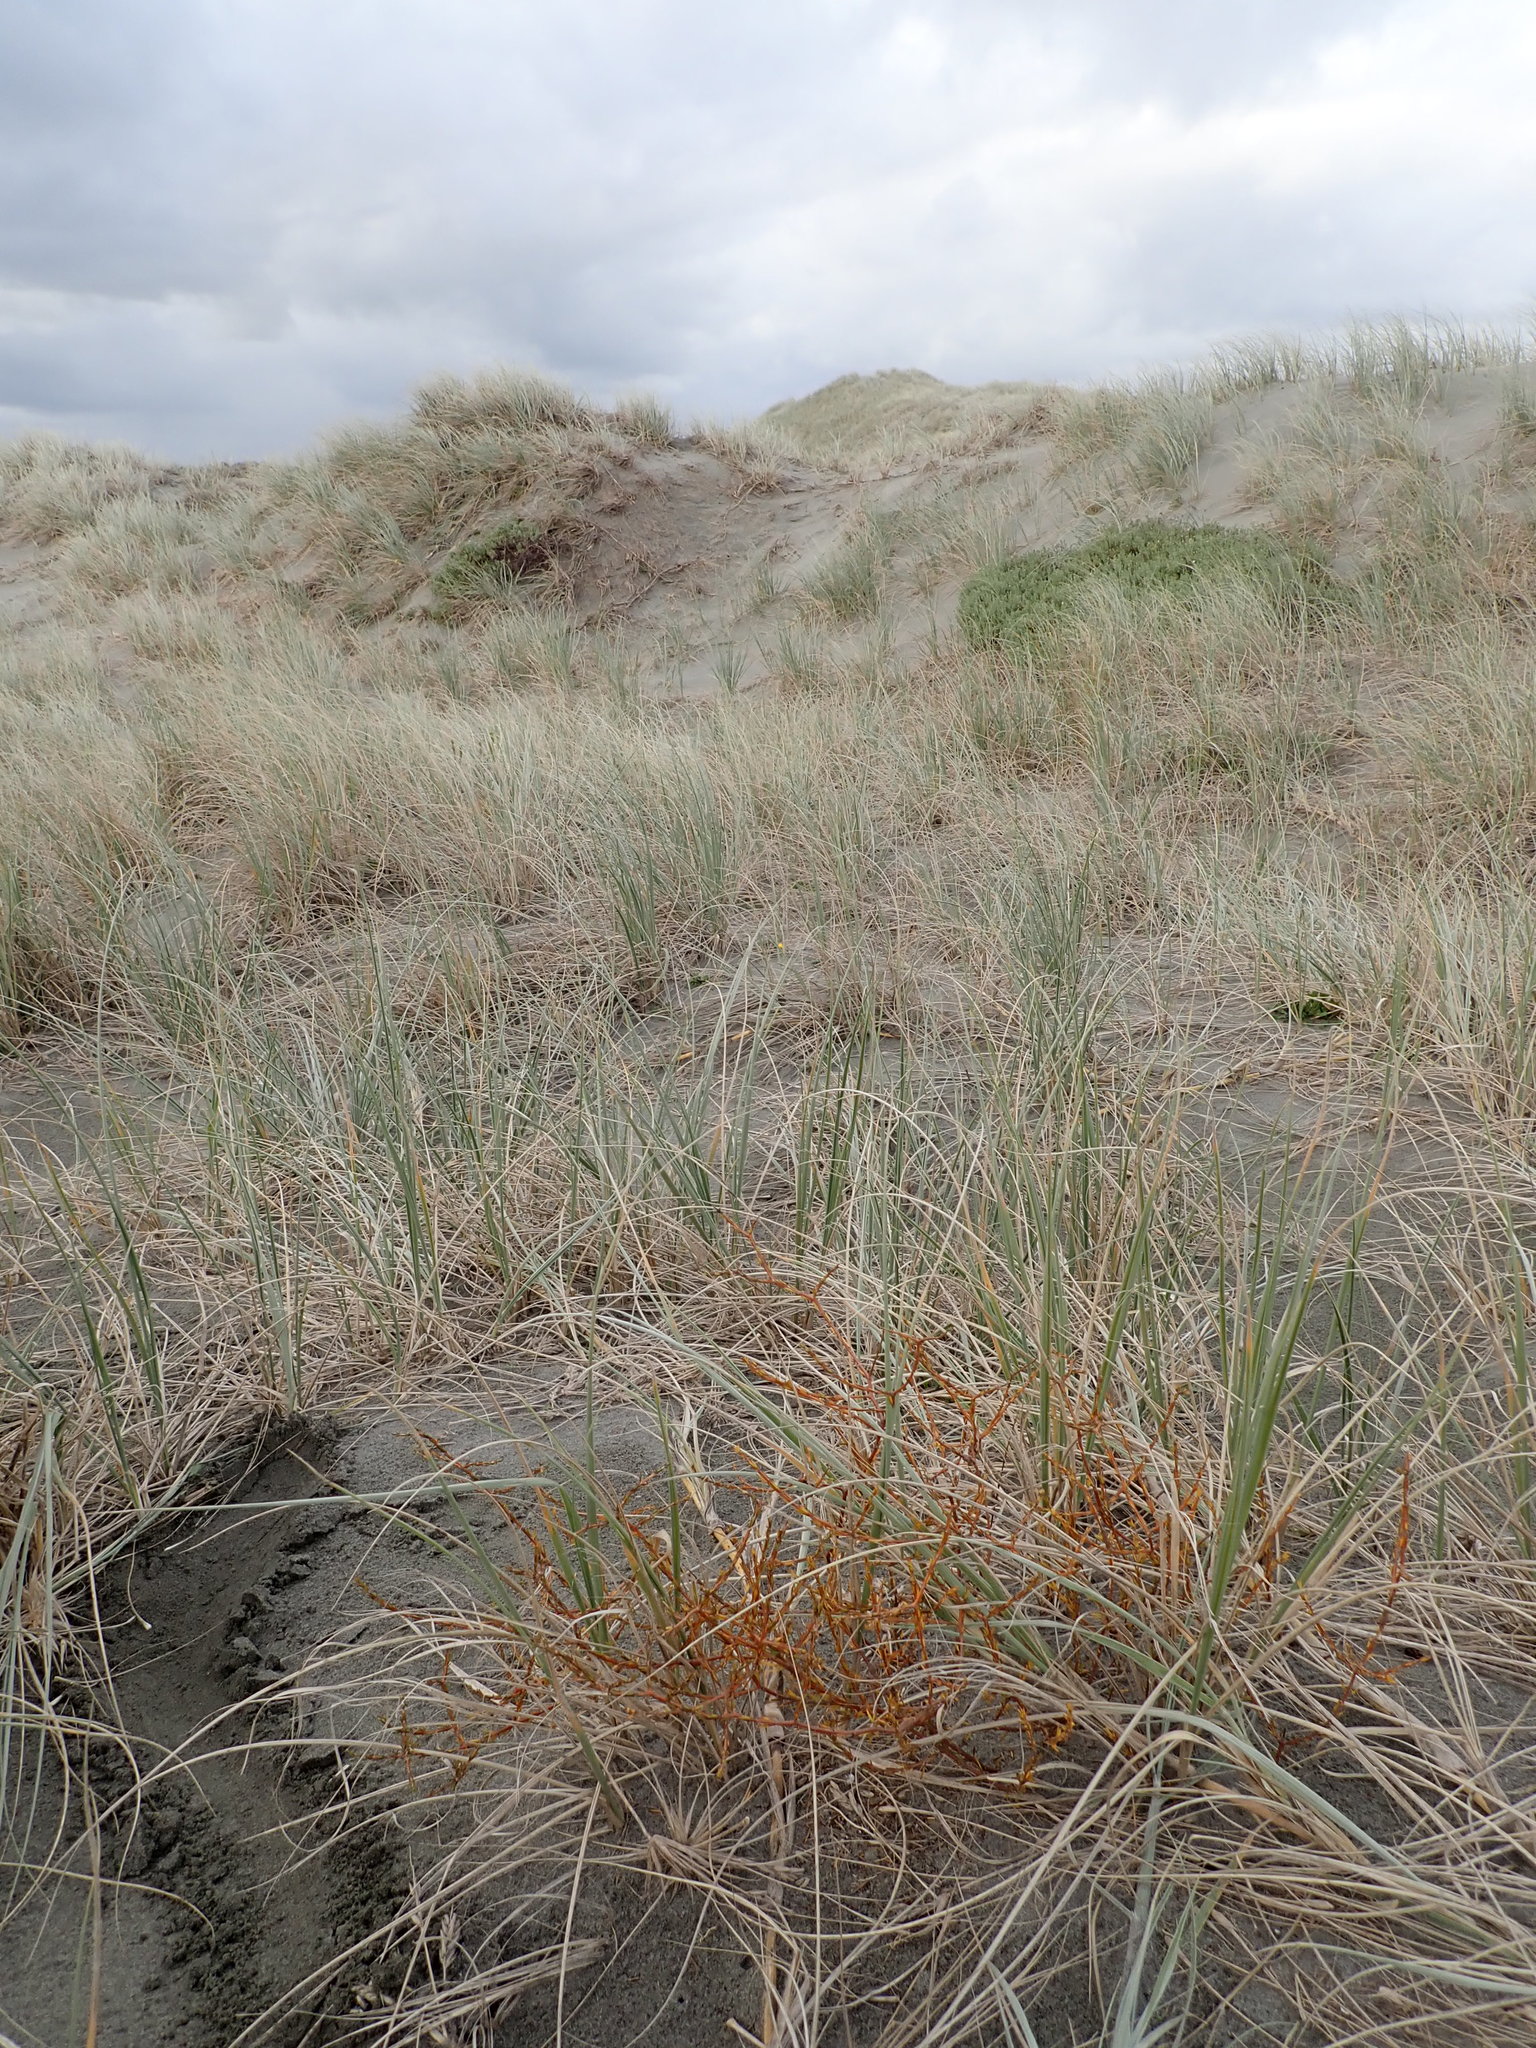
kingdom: Plantae
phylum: Tracheophyta
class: Magnoliopsida
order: Gentianales
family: Rubiaceae
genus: Coprosma
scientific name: Coprosma acerosa
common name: Sand coprosma
